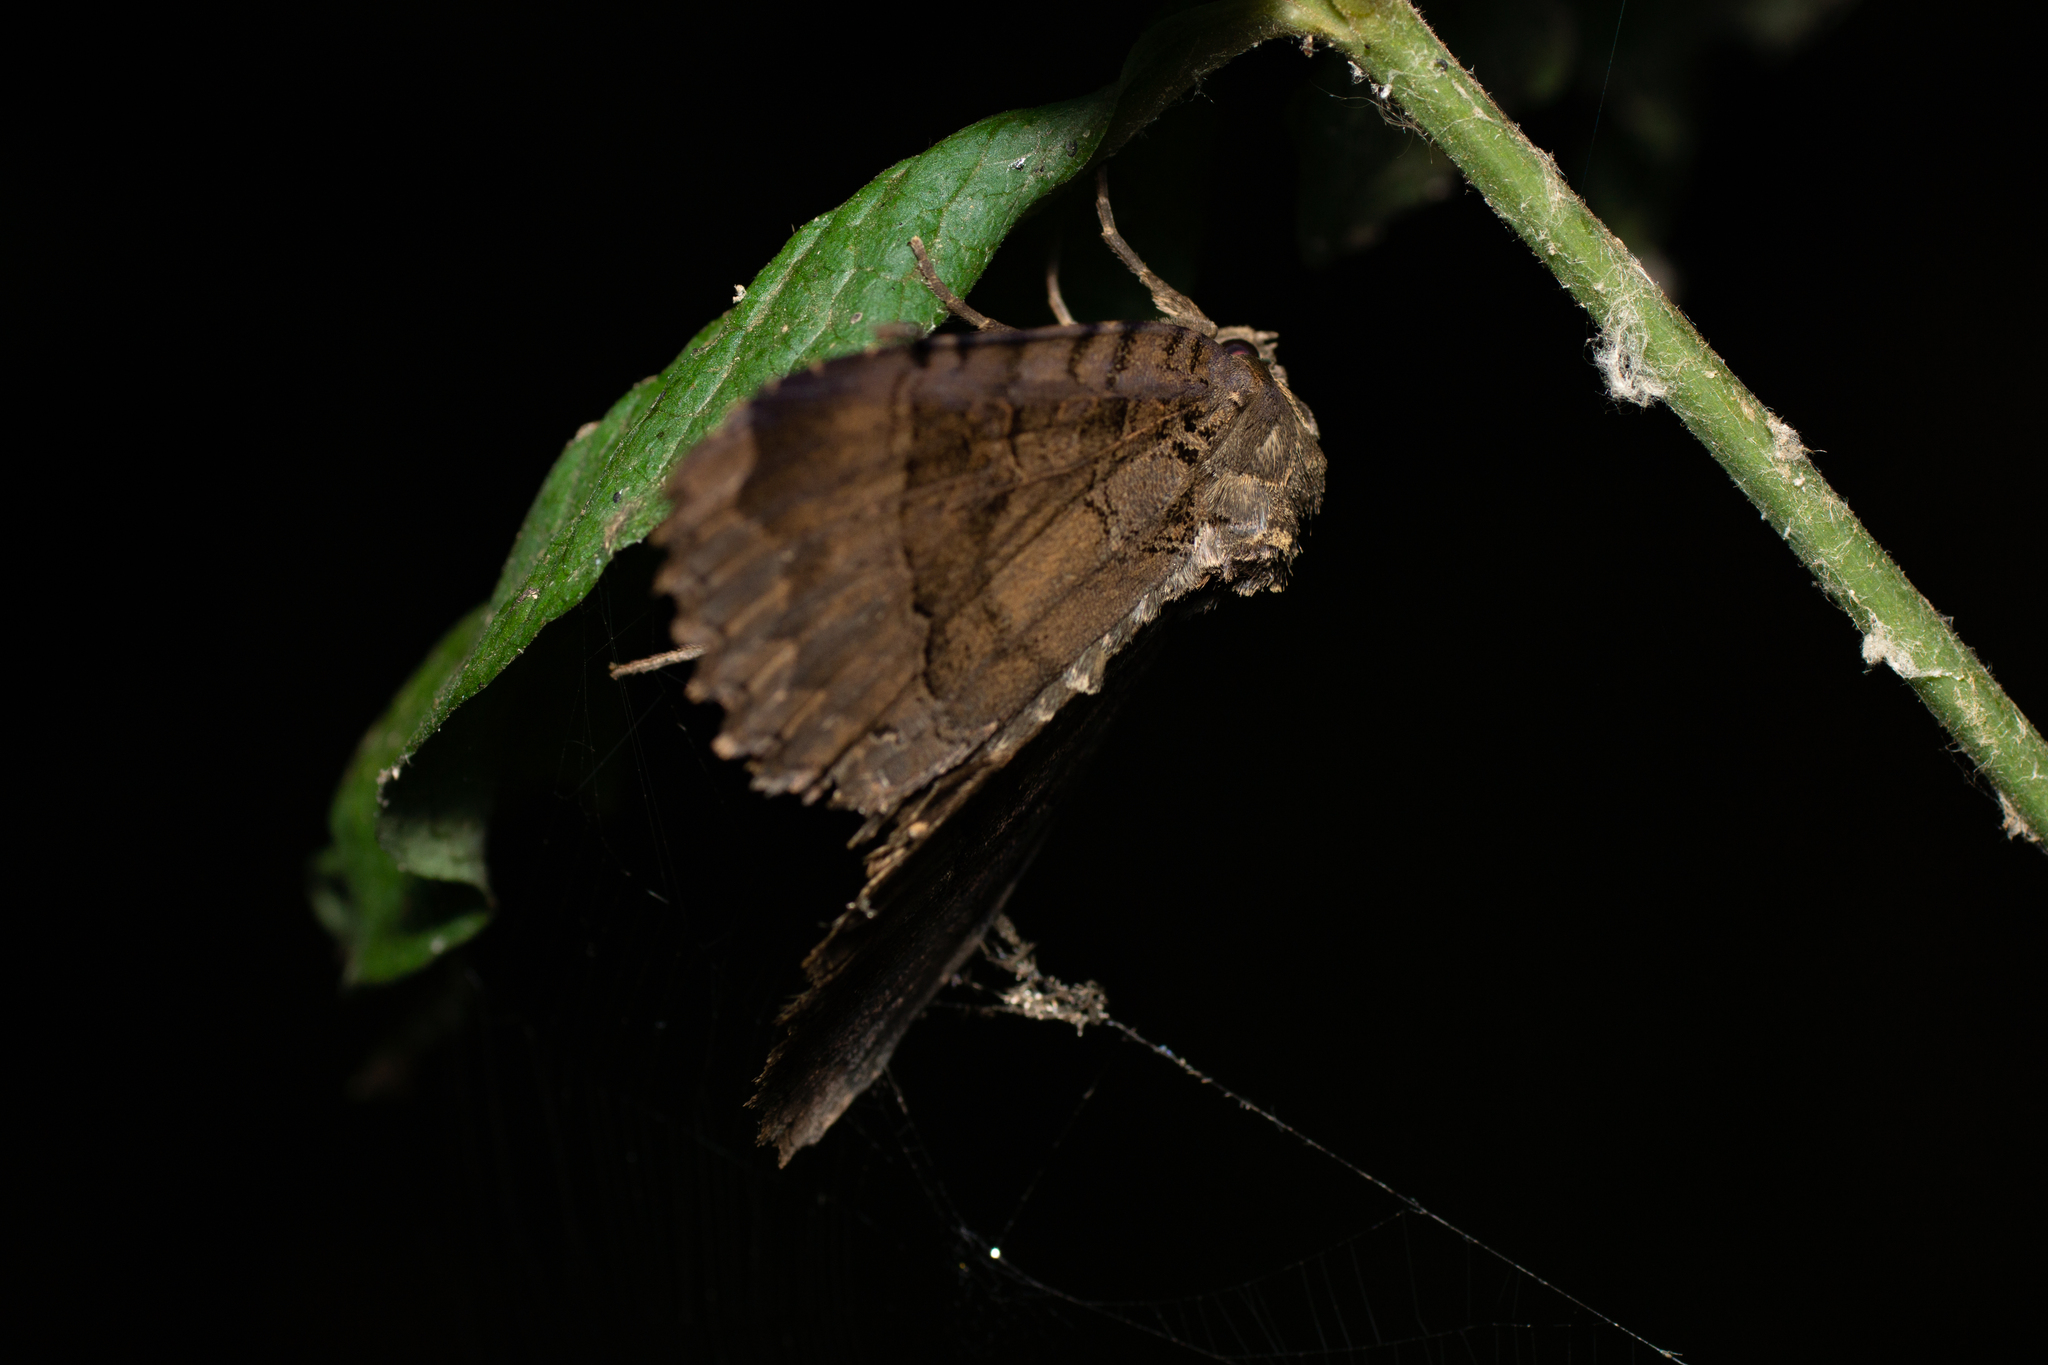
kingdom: Animalia
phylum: Arthropoda
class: Insecta
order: Lepidoptera
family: Noctuidae
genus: Mormo
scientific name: Mormo maura
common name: Old lady
